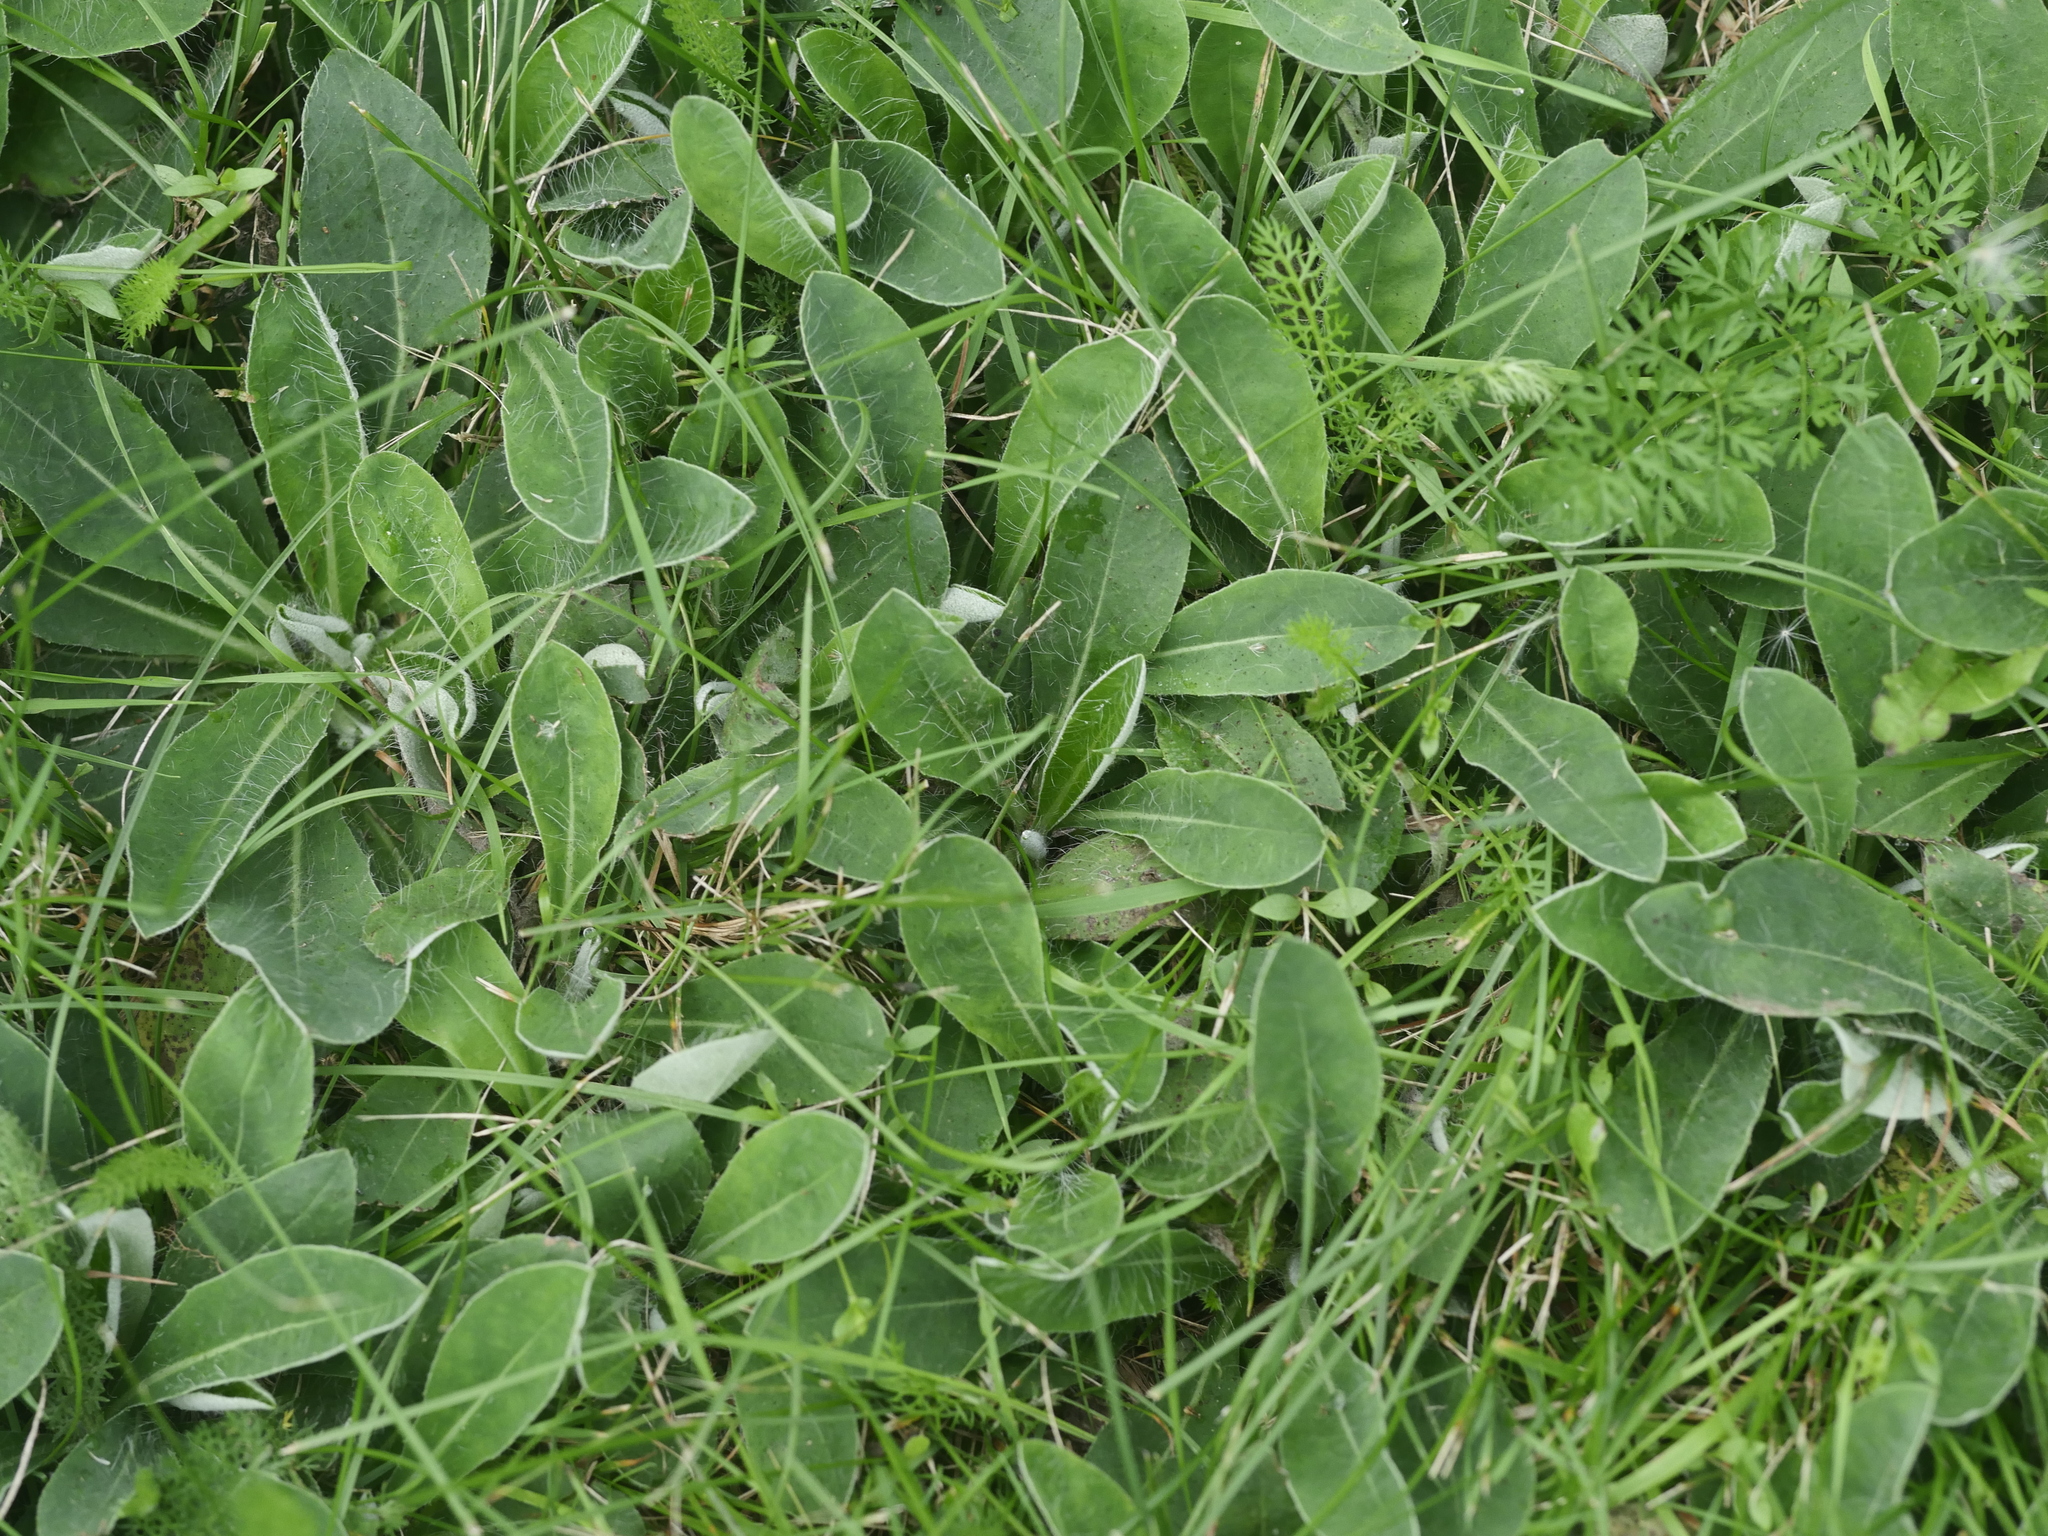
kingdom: Plantae
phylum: Tracheophyta
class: Magnoliopsida
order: Asterales
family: Asteraceae
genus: Pilosella
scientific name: Pilosella officinarum
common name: Mouse-ear hawkweed
